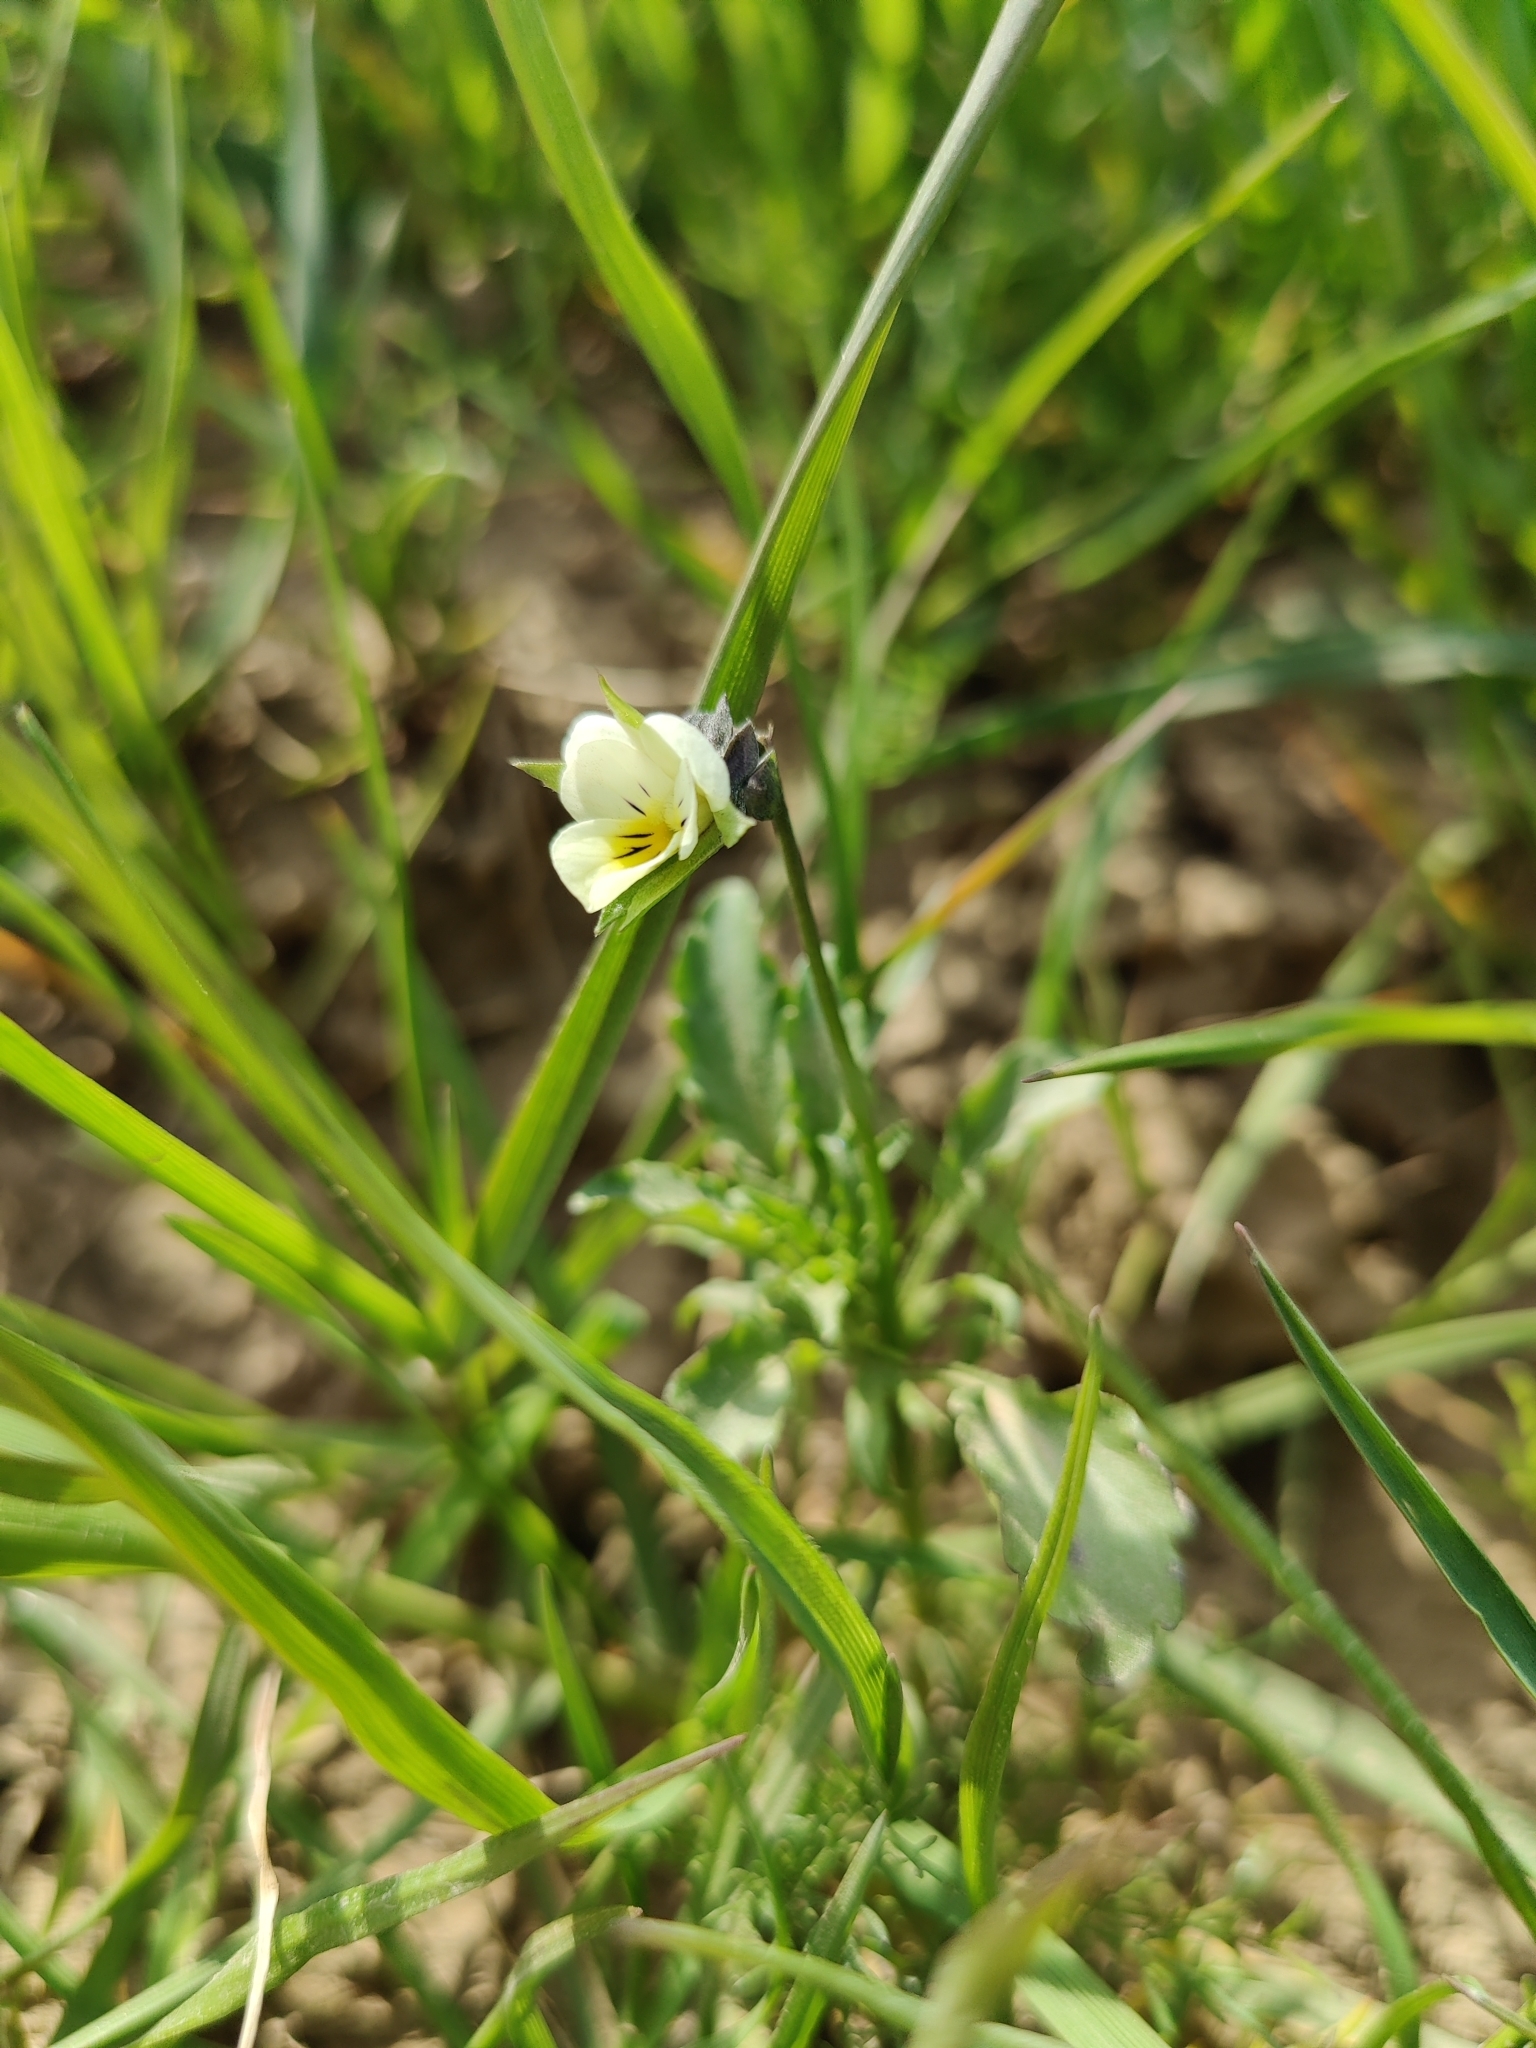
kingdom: Plantae
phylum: Tracheophyta
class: Magnoliopsida
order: Malpighiales
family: Violaceae
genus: Viola
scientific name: Viola arvensis
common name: Field pansy
